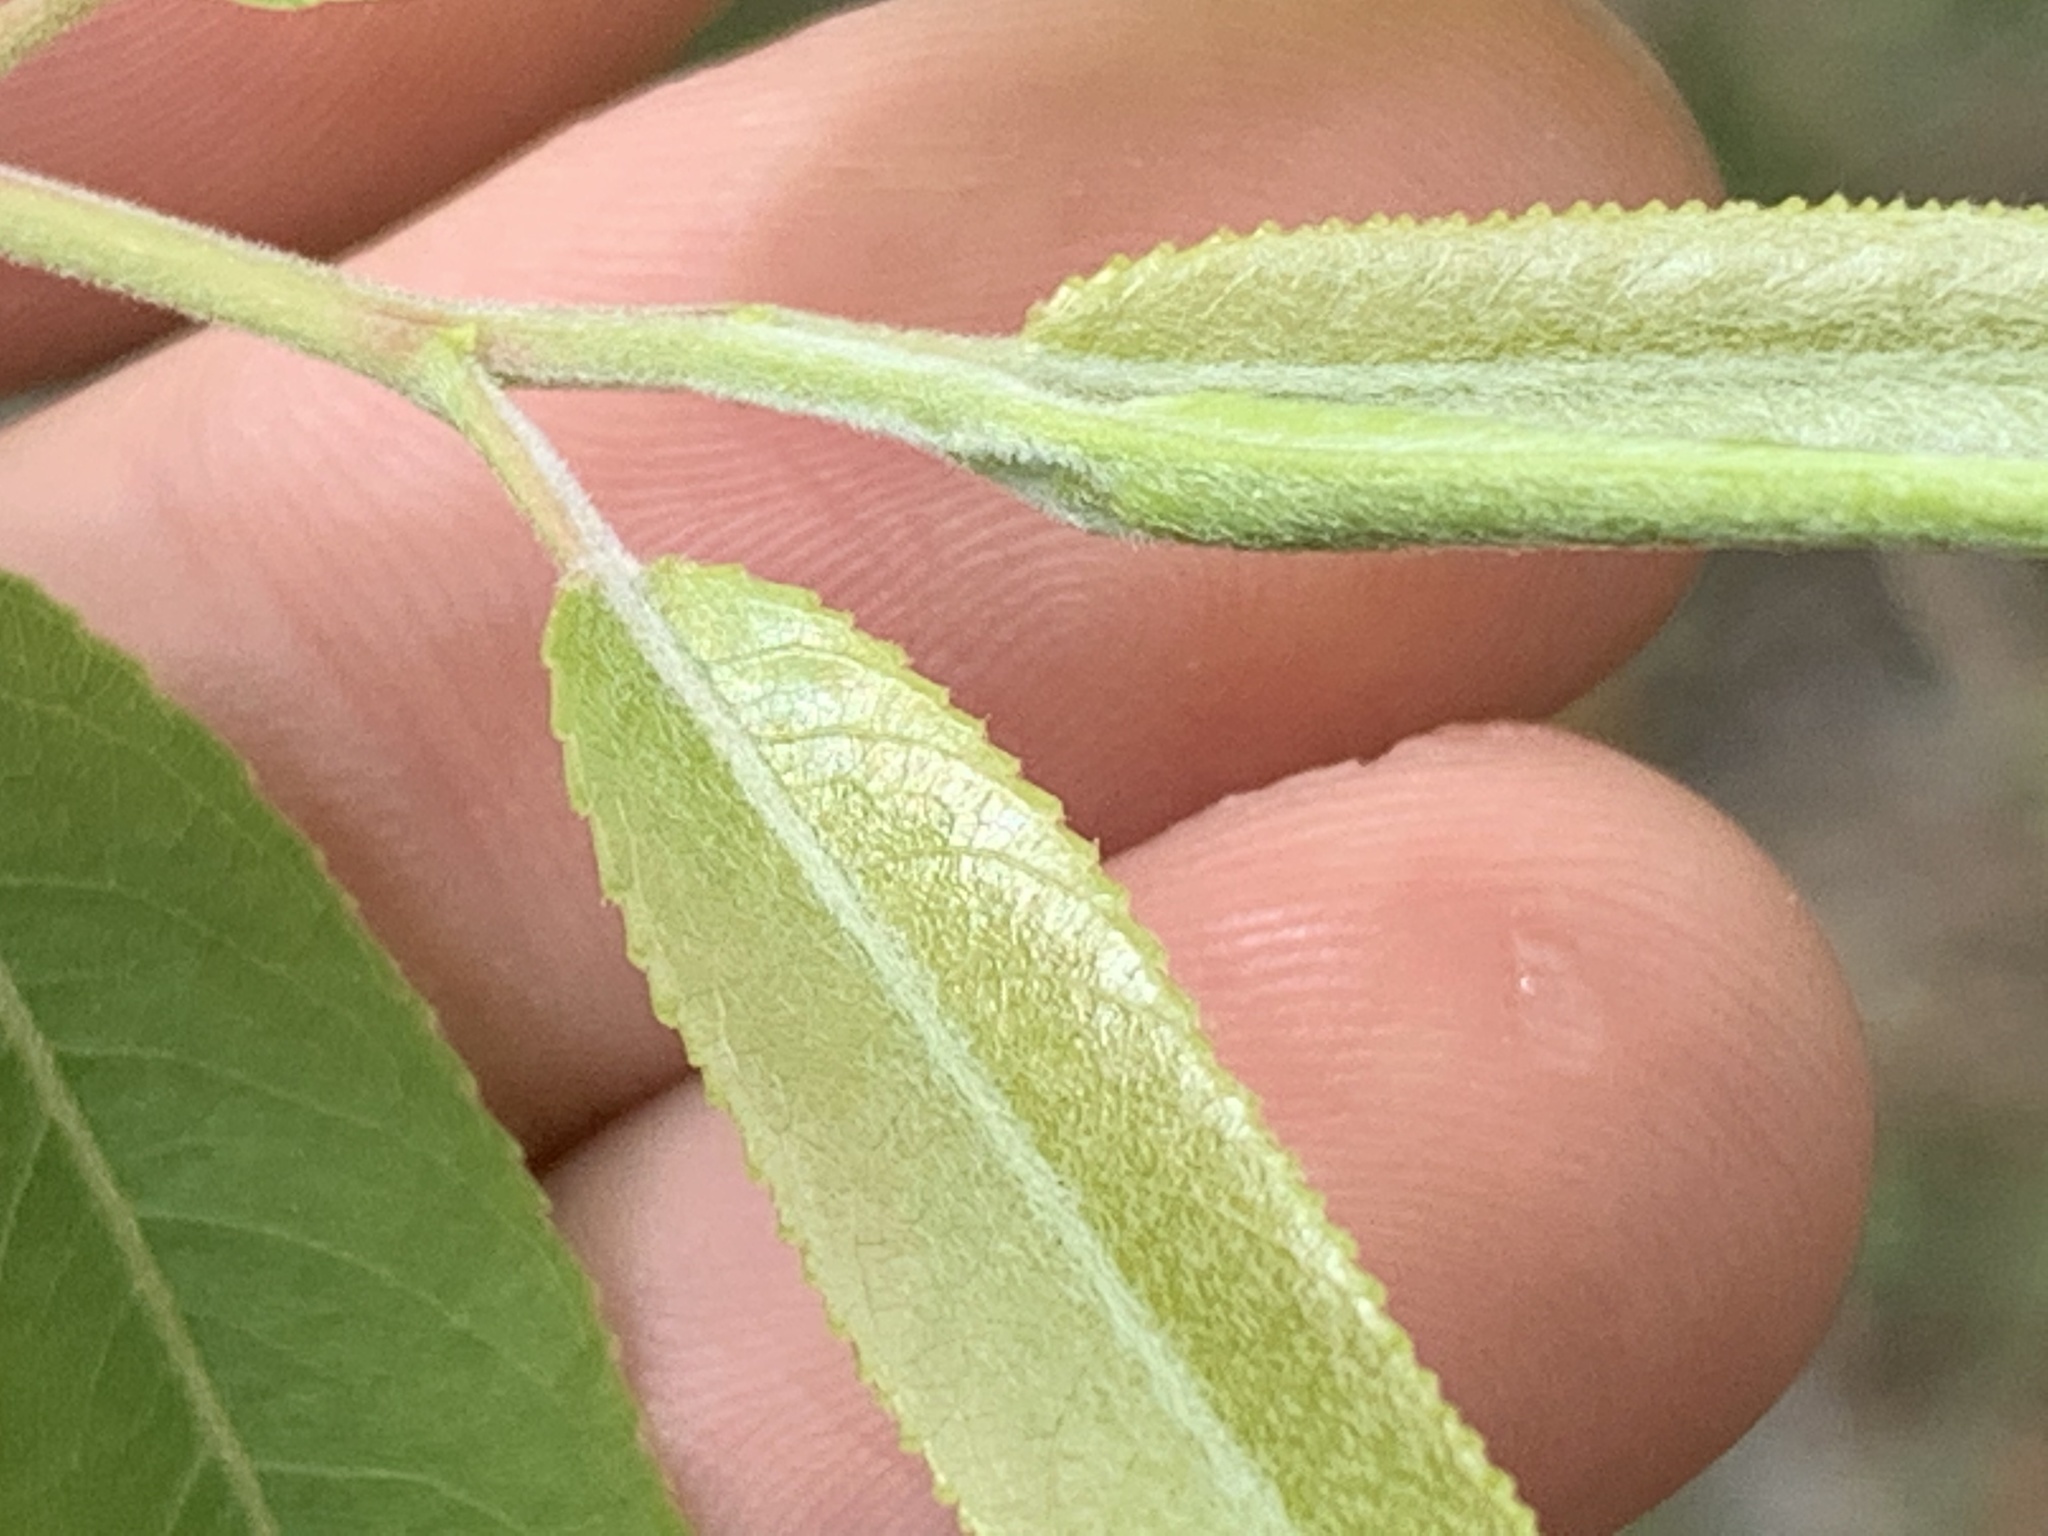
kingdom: Plantae
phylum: Tracheophyta
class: Magnoliopsida
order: Malpighiales
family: Salicaceae
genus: Salix
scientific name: Salix caroliniana
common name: Carolina willow
